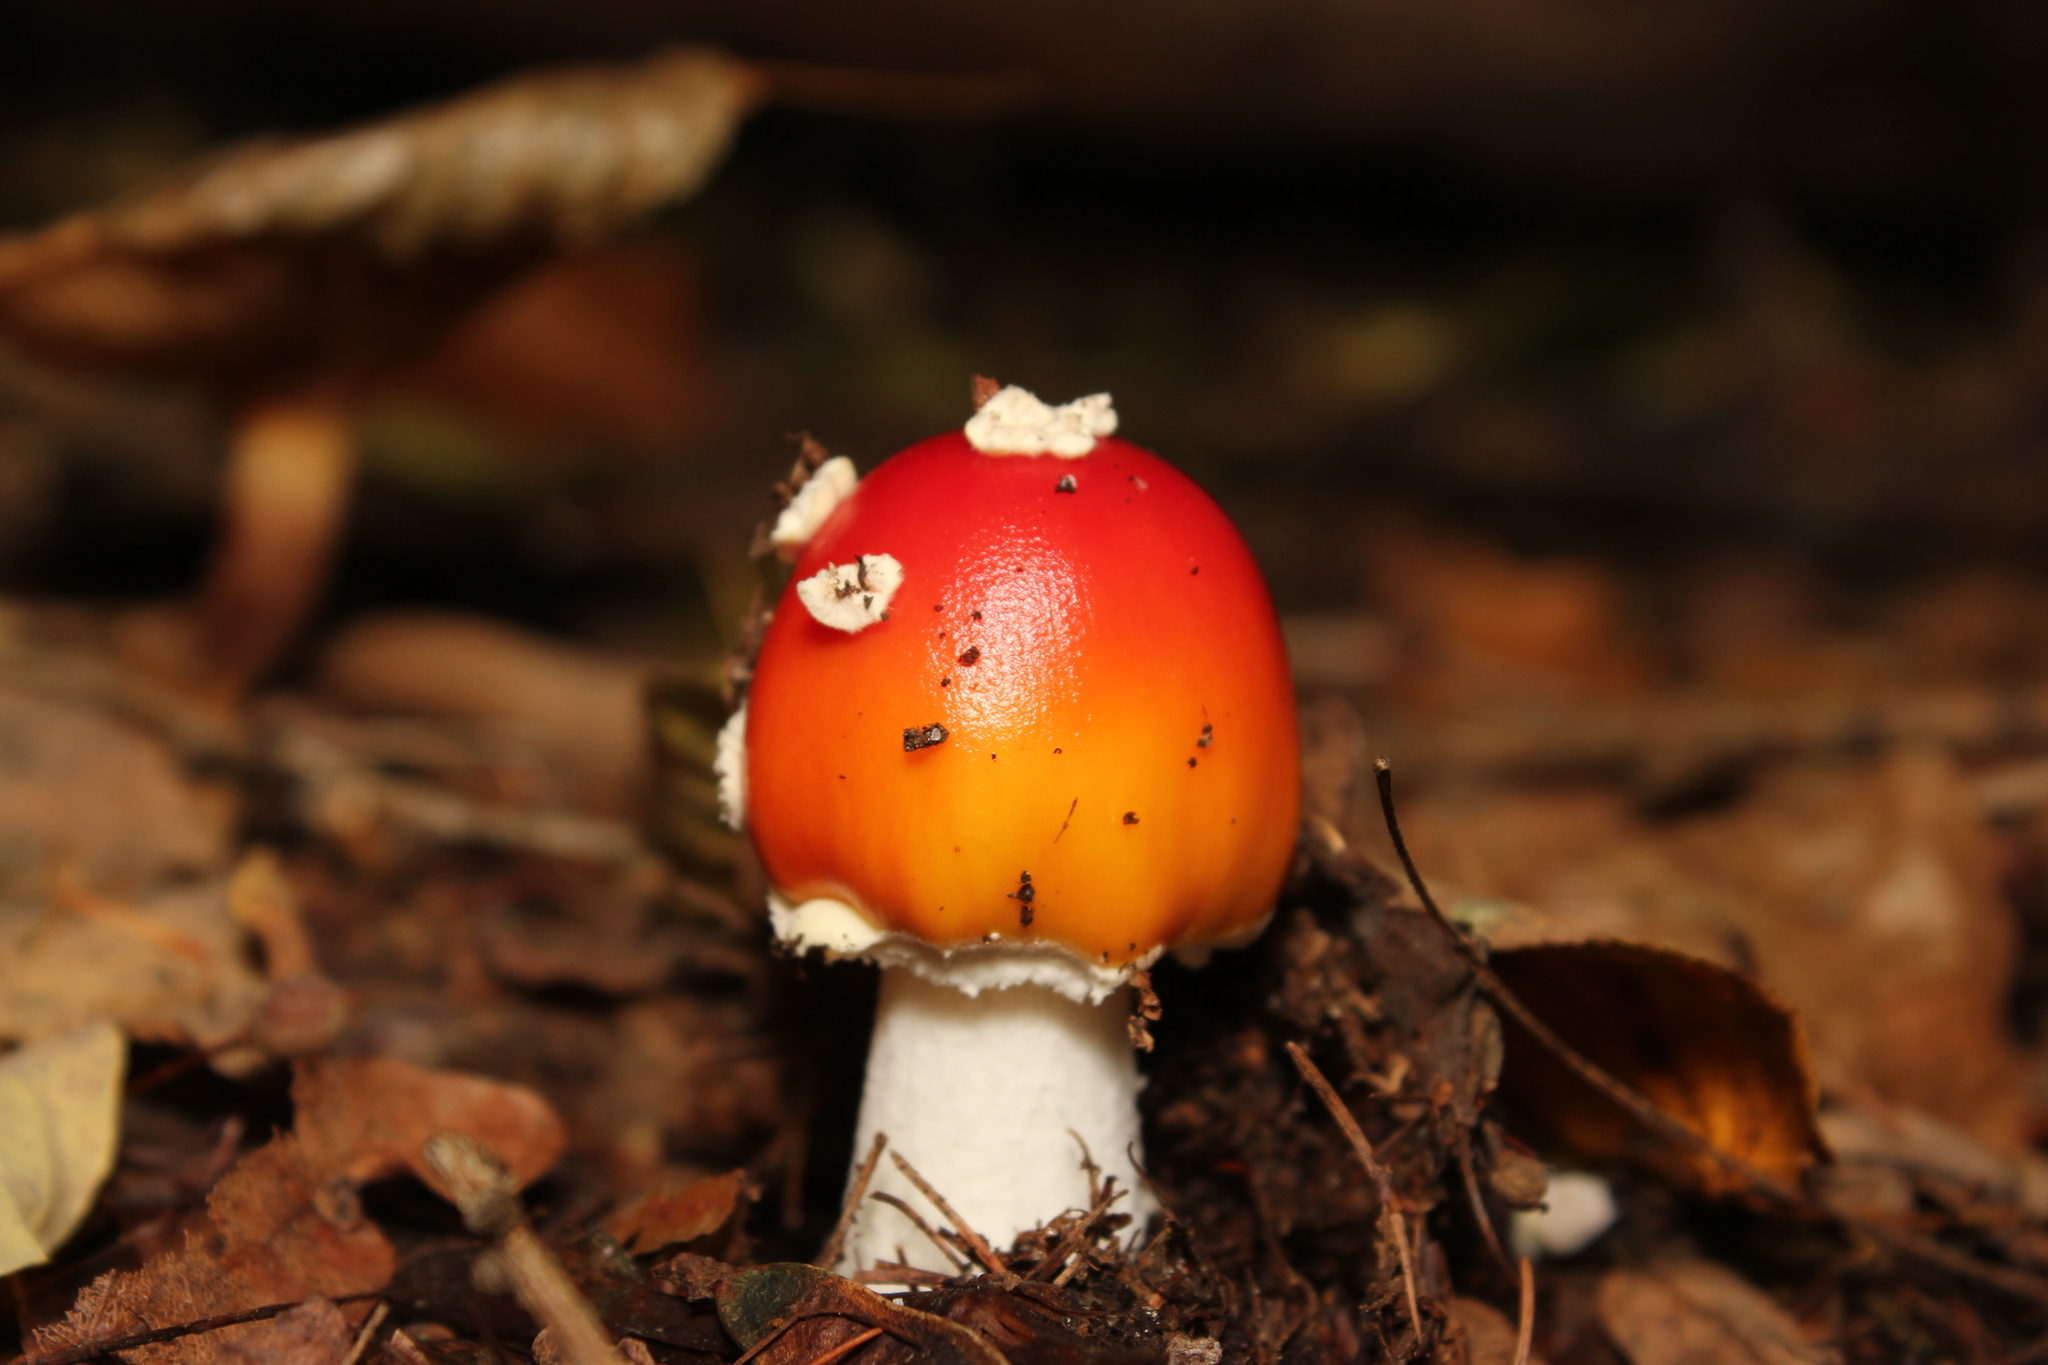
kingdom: Fungi
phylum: Basidiomycota
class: Agaricomycetes
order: Agaricales
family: Amanitaceae
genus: Amanita
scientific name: Amanita muscaria
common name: Fly agaric
